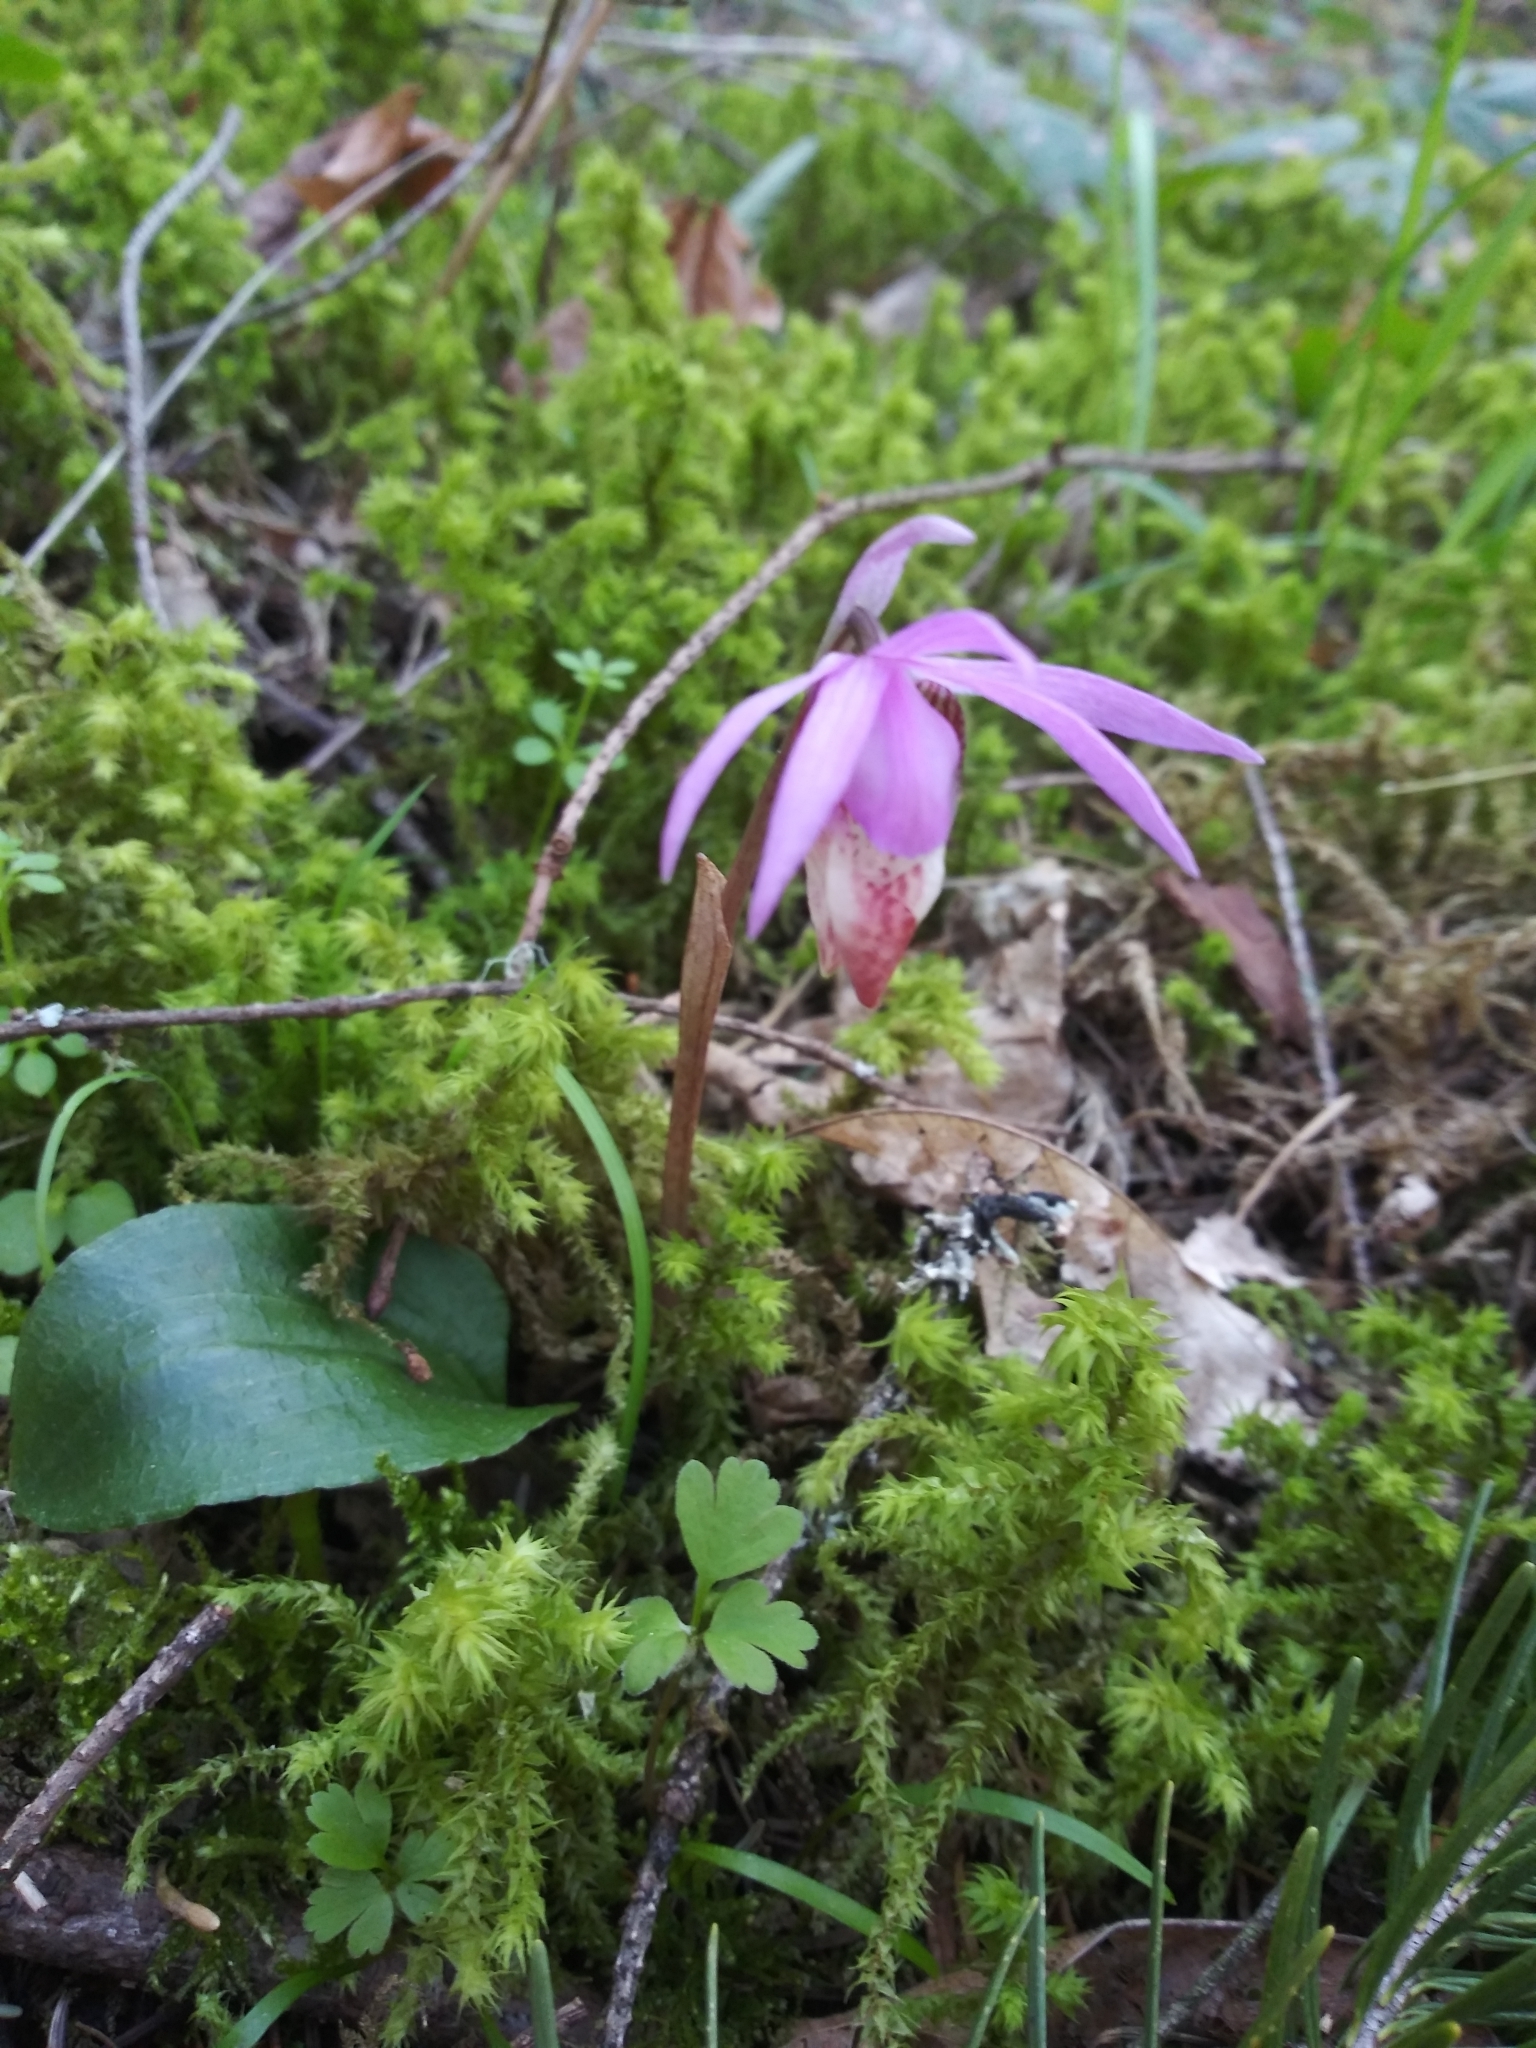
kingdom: Plantae
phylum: Tracheophyta
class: Liliopsida
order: Asparagales
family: Orchidaceae
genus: Calypso
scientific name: Calypso bulbosa
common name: Calypso
